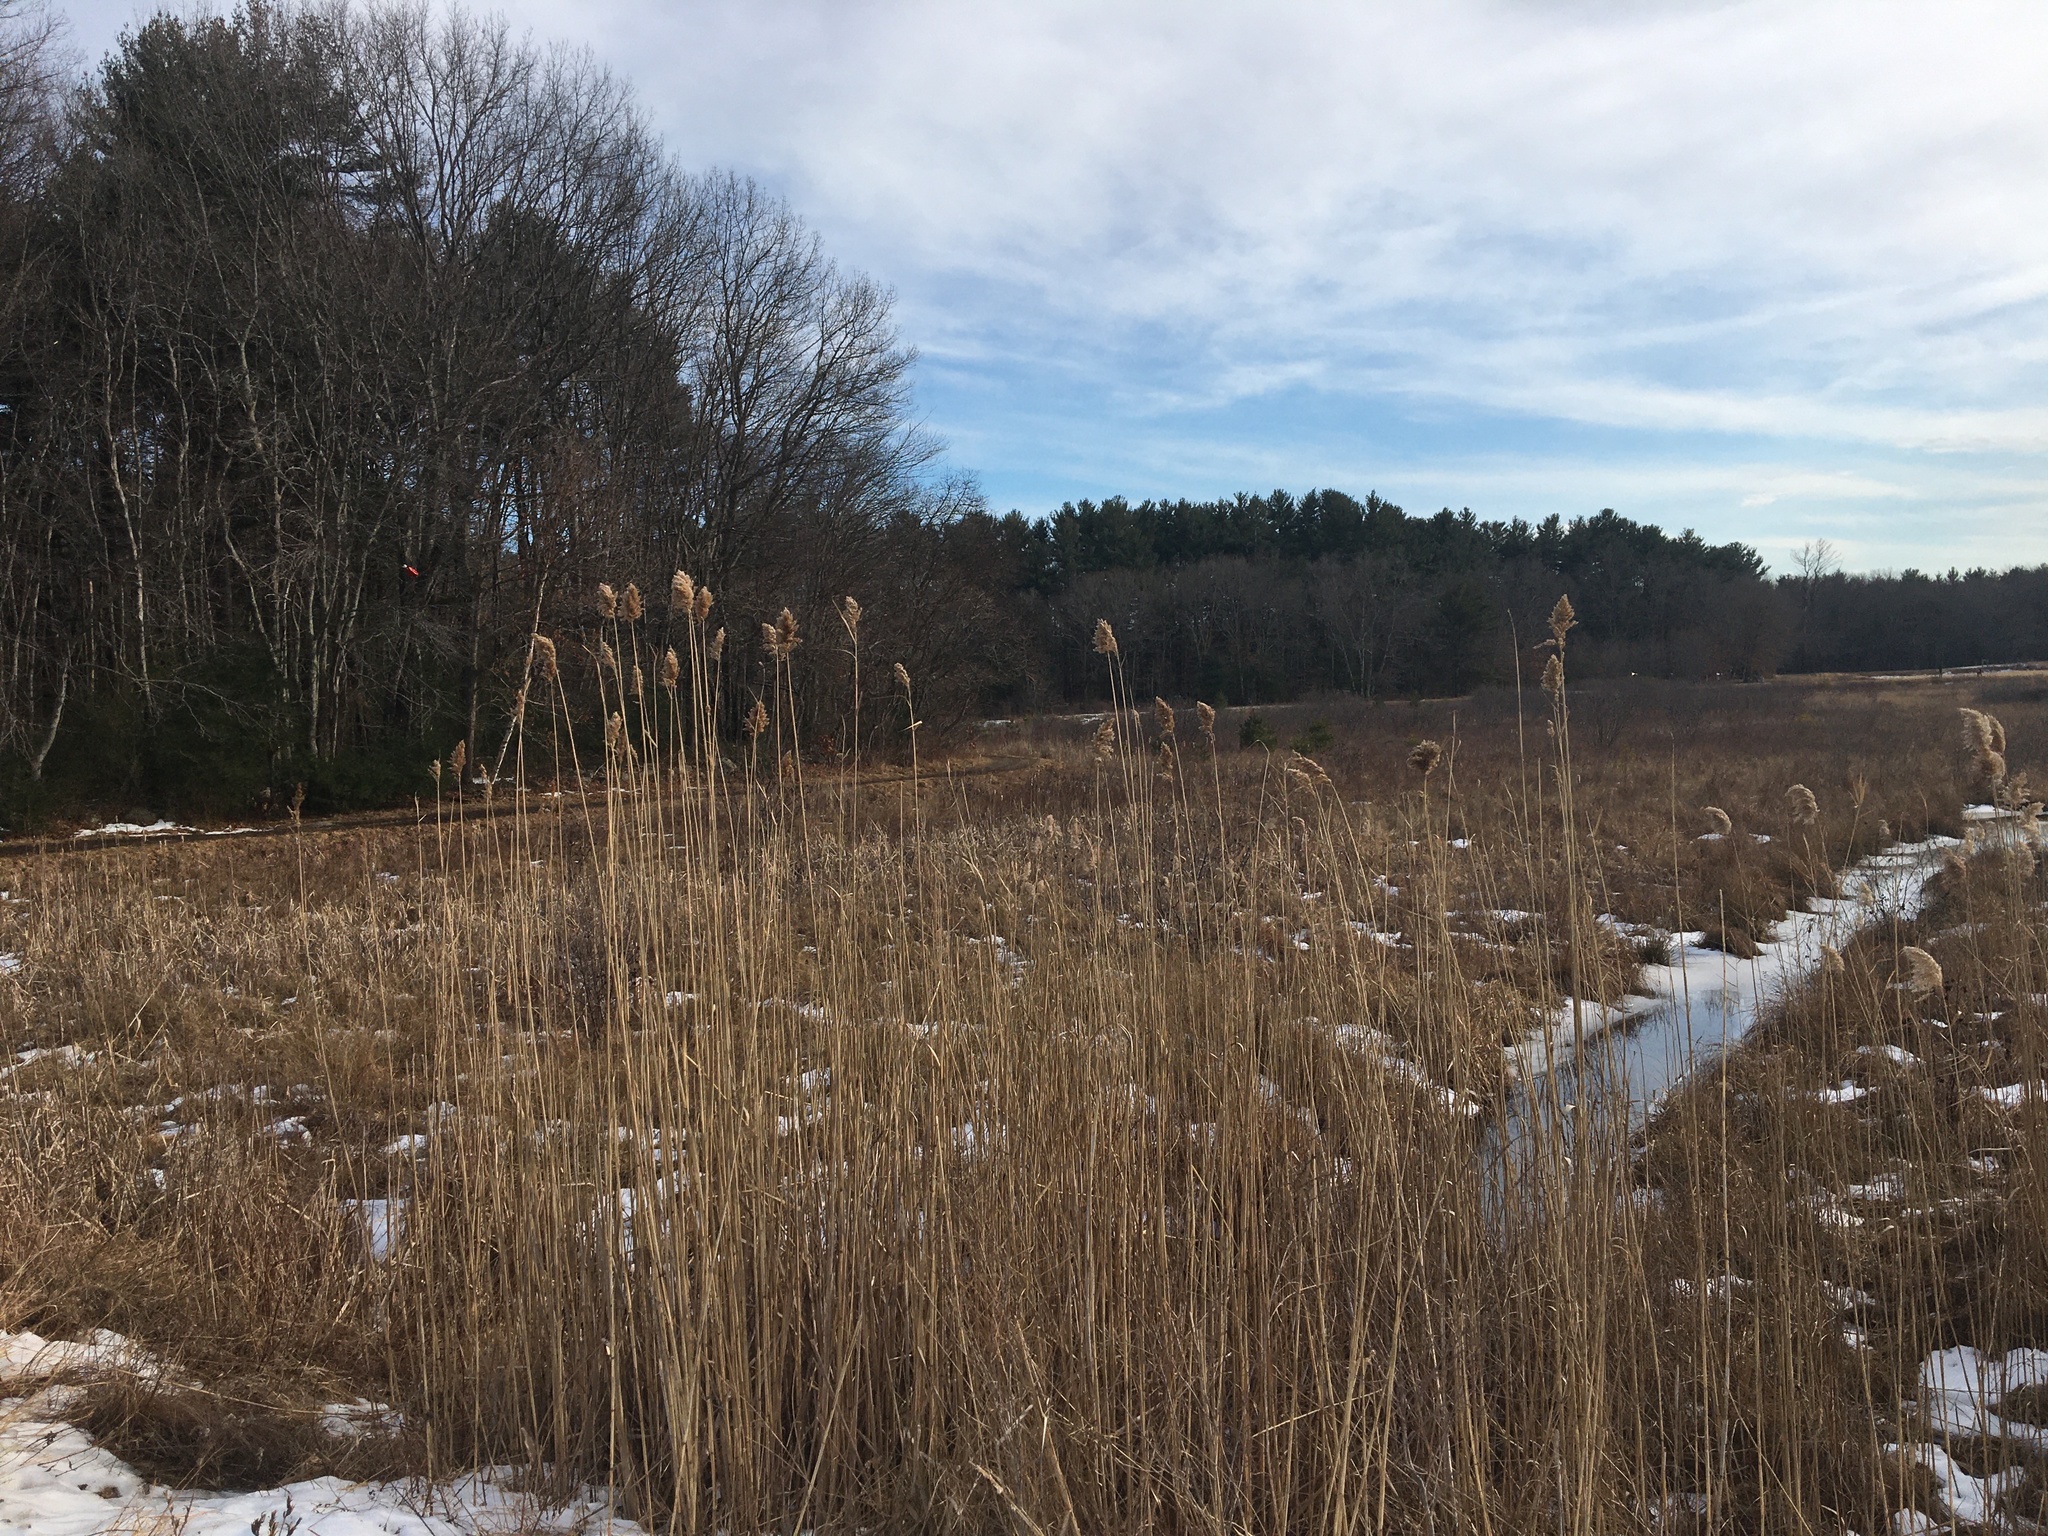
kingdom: Plantae
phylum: Tracheophyta
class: Liliopsida
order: Poales
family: Poaceae
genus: Phragmites
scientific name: Phragmites australis
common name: Common reed
